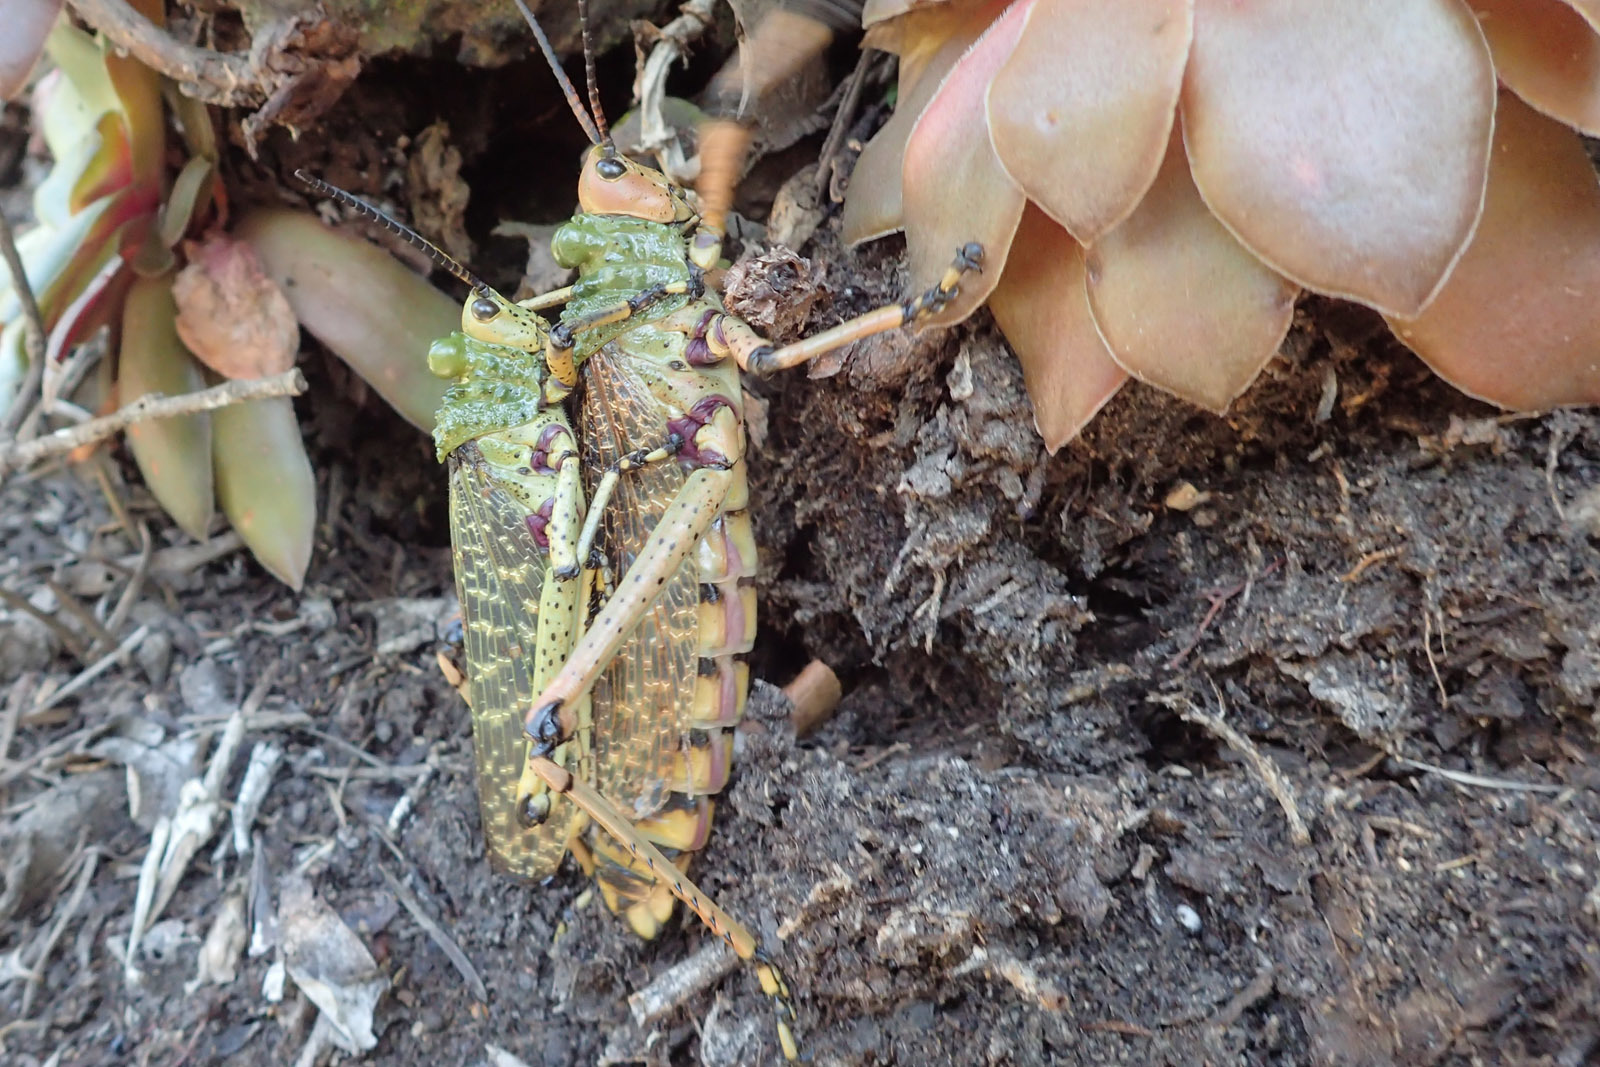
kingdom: Animalia
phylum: Arthropoda
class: Insecta
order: Orthoptera
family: Pyrgomorphidae
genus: Phymateus
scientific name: Phymateus leprosus
